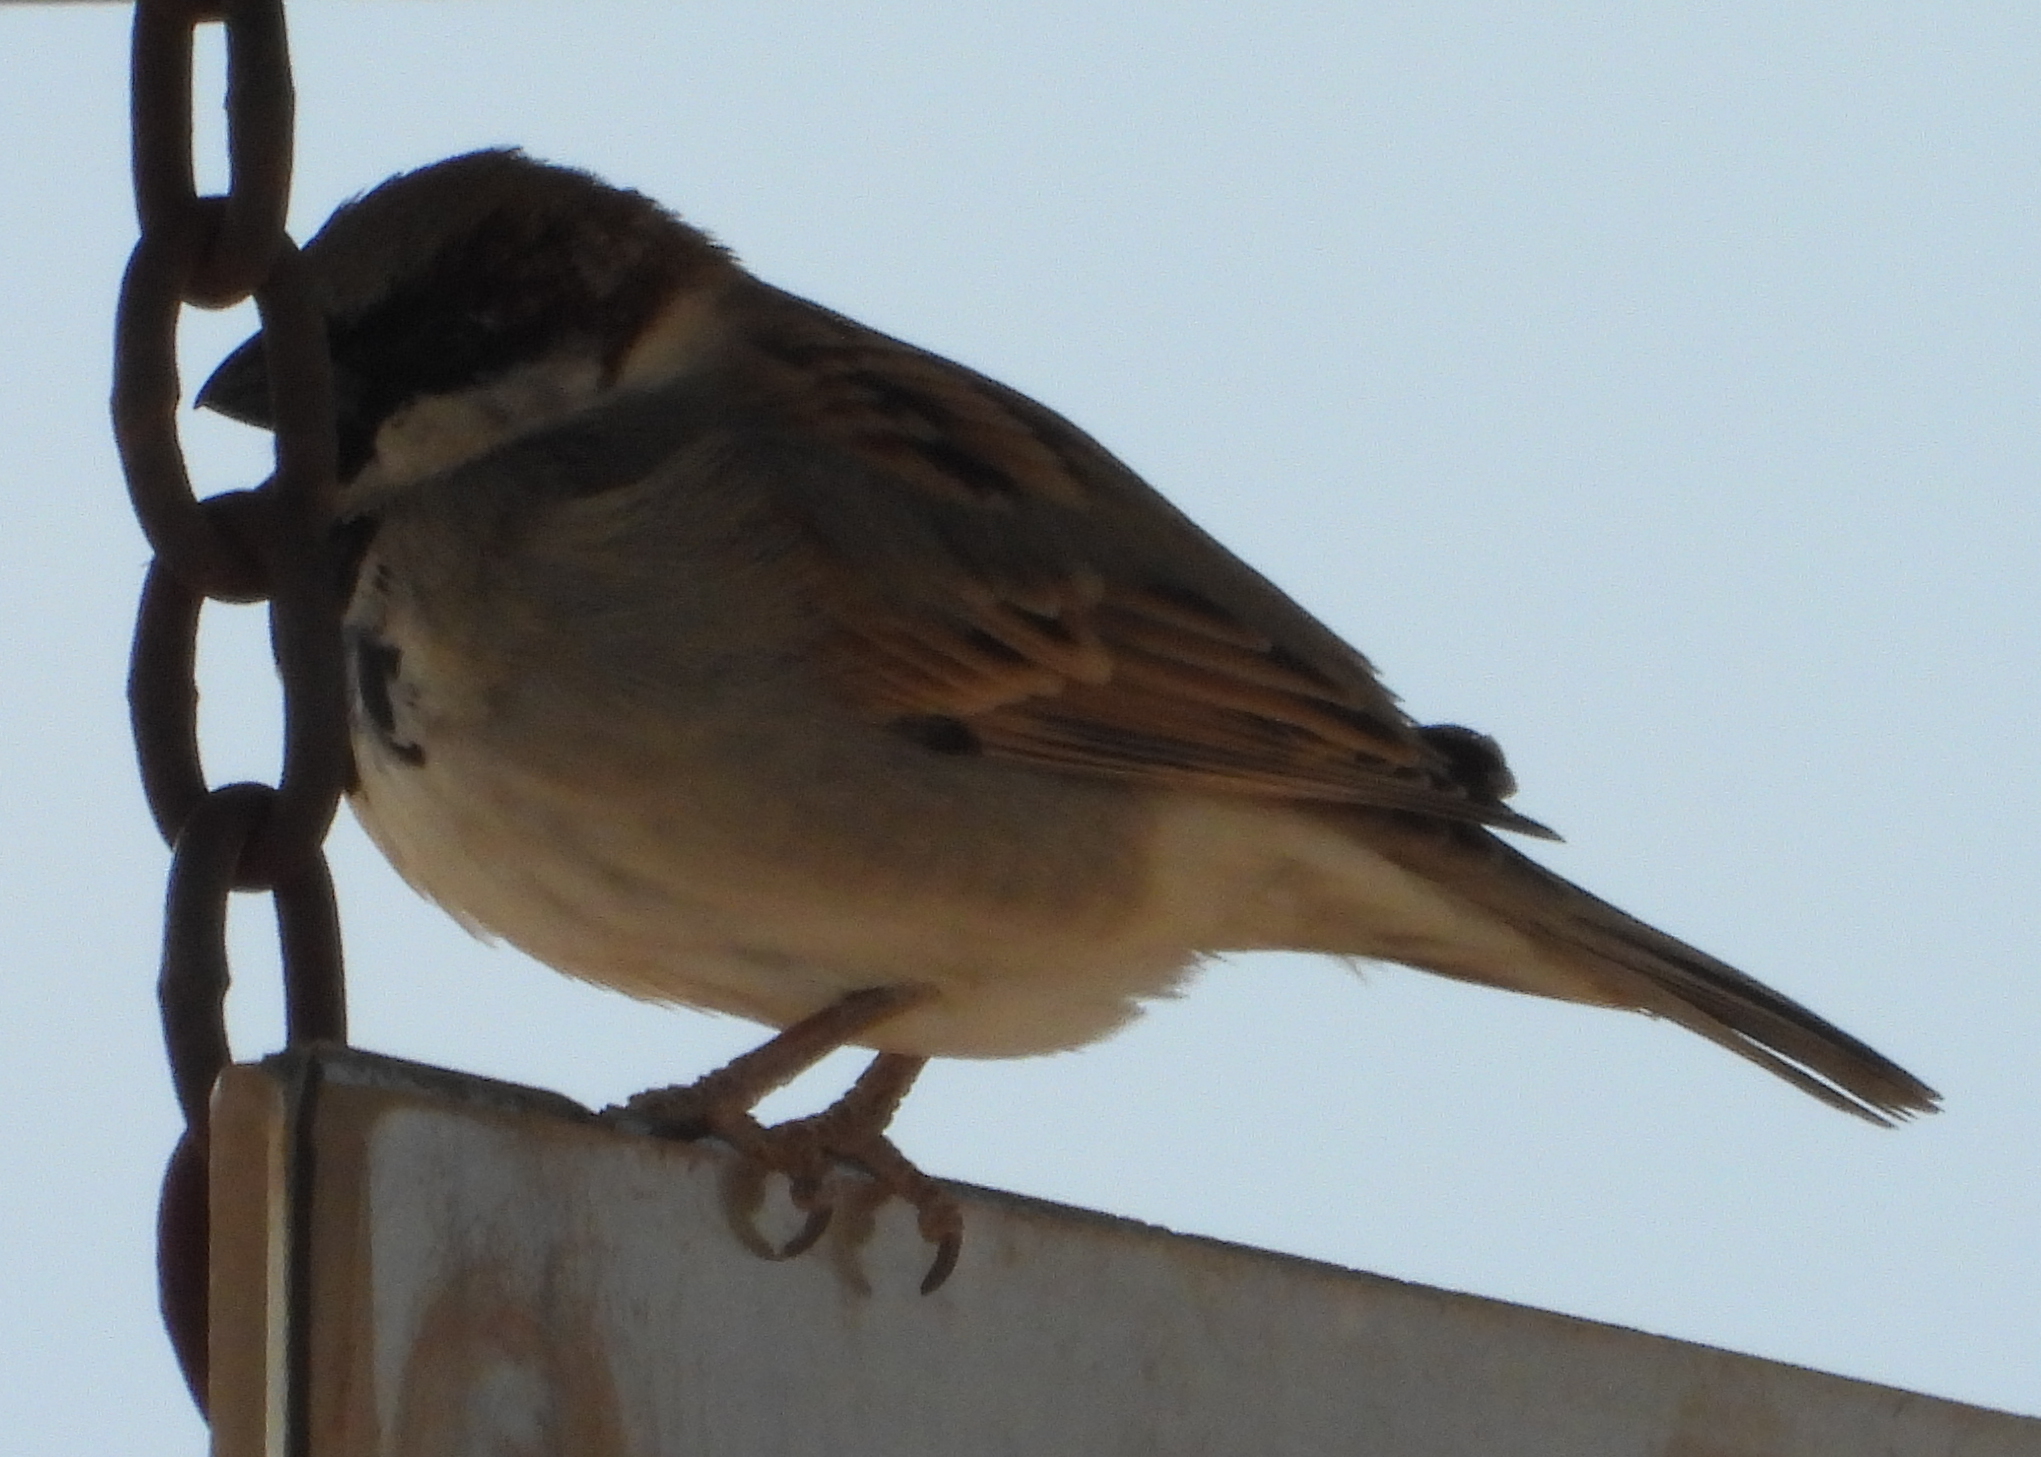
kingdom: Animalia
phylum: Chordata
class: Aves
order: Passeriformes
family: Passeridae
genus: Passer
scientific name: Passer domesticus
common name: House sparrow
